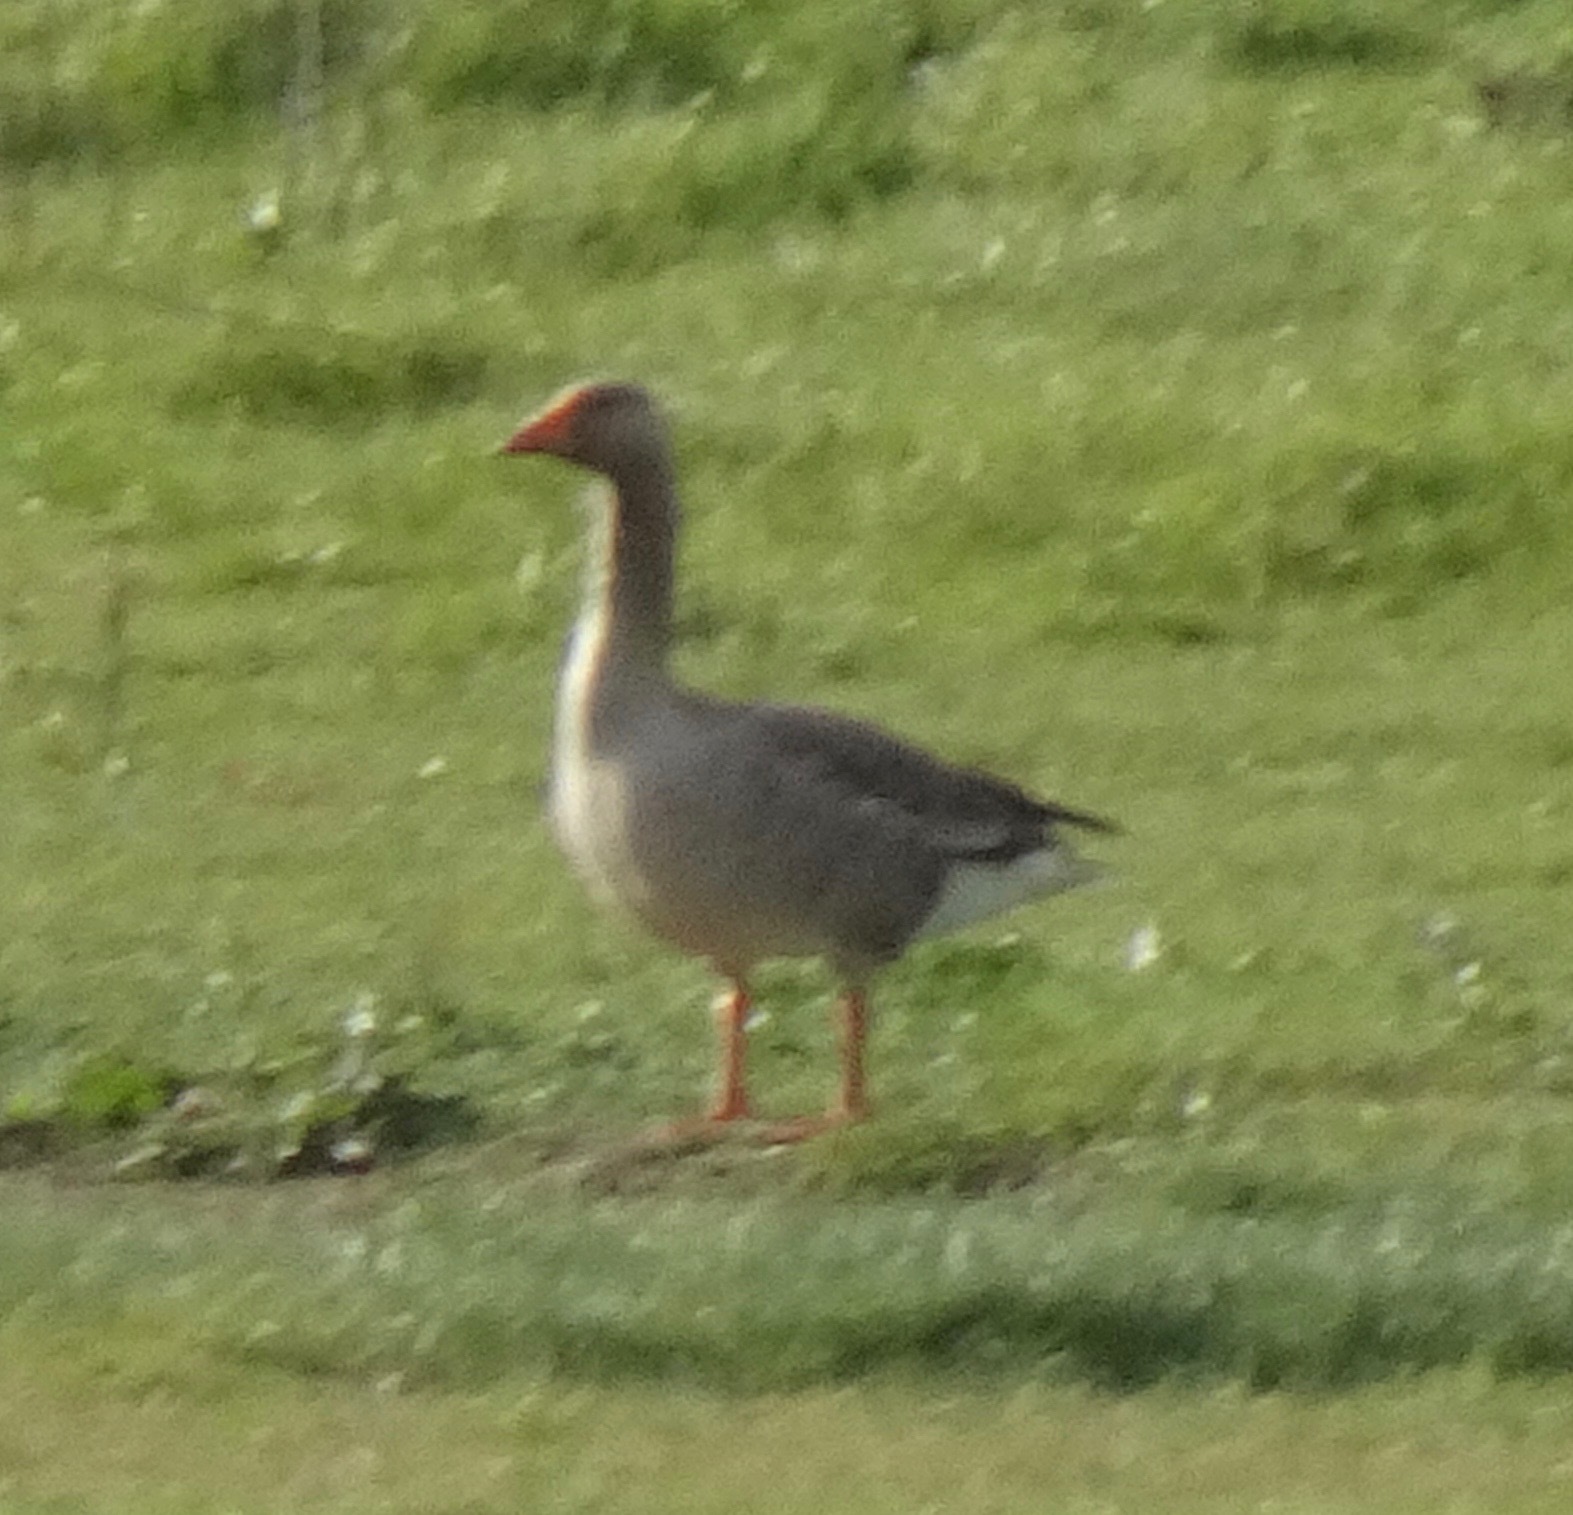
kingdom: Animalia
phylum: Chordata
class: Aves
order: Anseriformes
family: Anatidae
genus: Anser
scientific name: Anser anser
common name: Greylag goose
